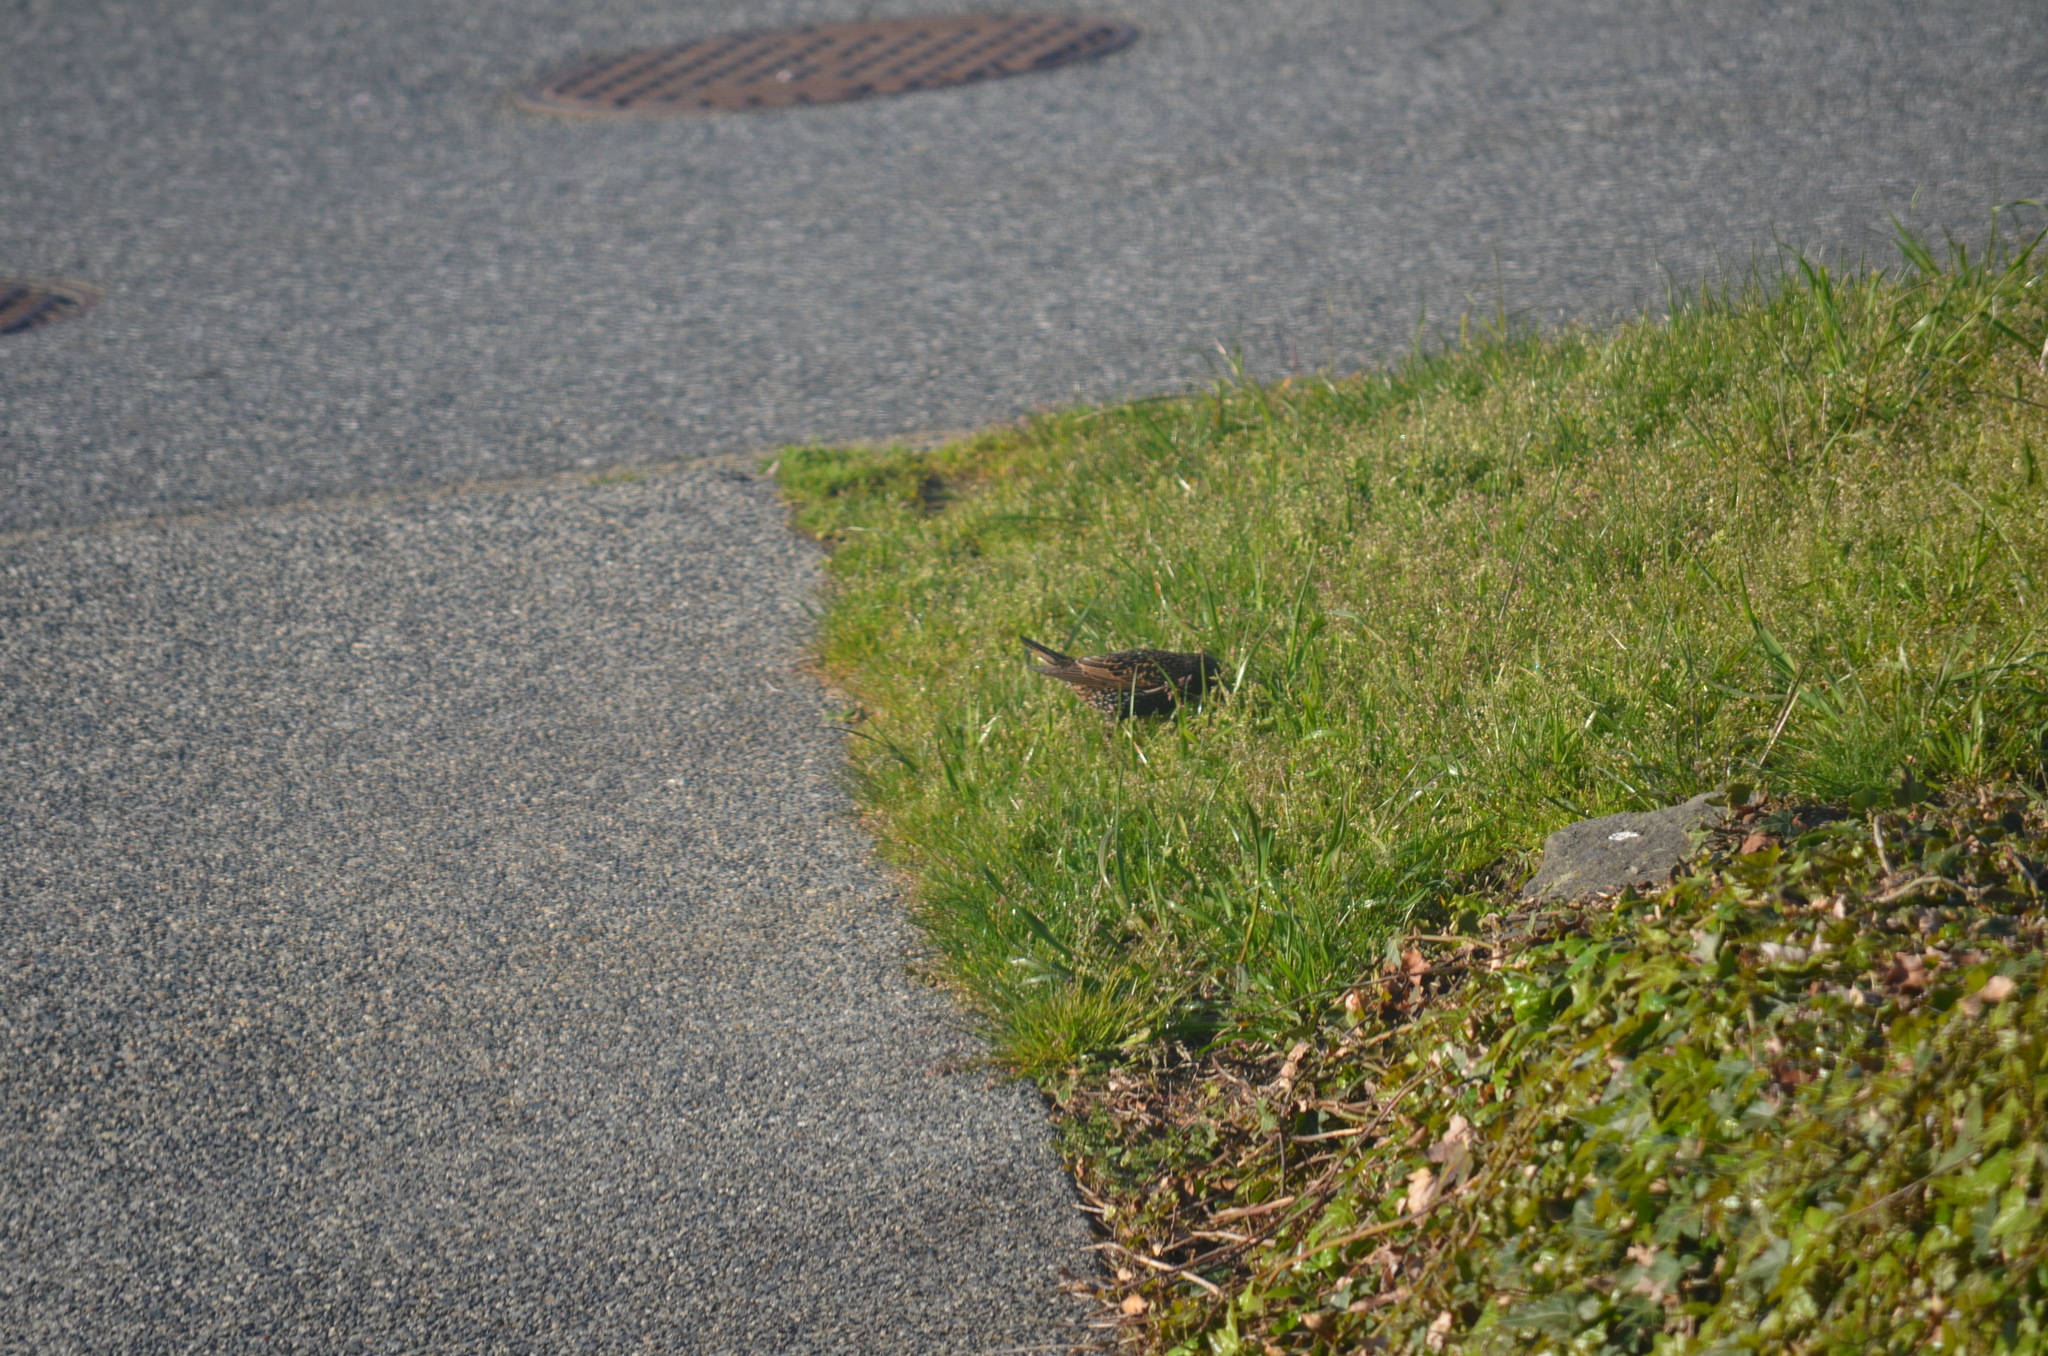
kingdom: Animalia
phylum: Chordata
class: Aves
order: Passeriformes
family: Sturnidae
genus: Sturnus
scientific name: Sturnus vulgaris
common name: Common starling
